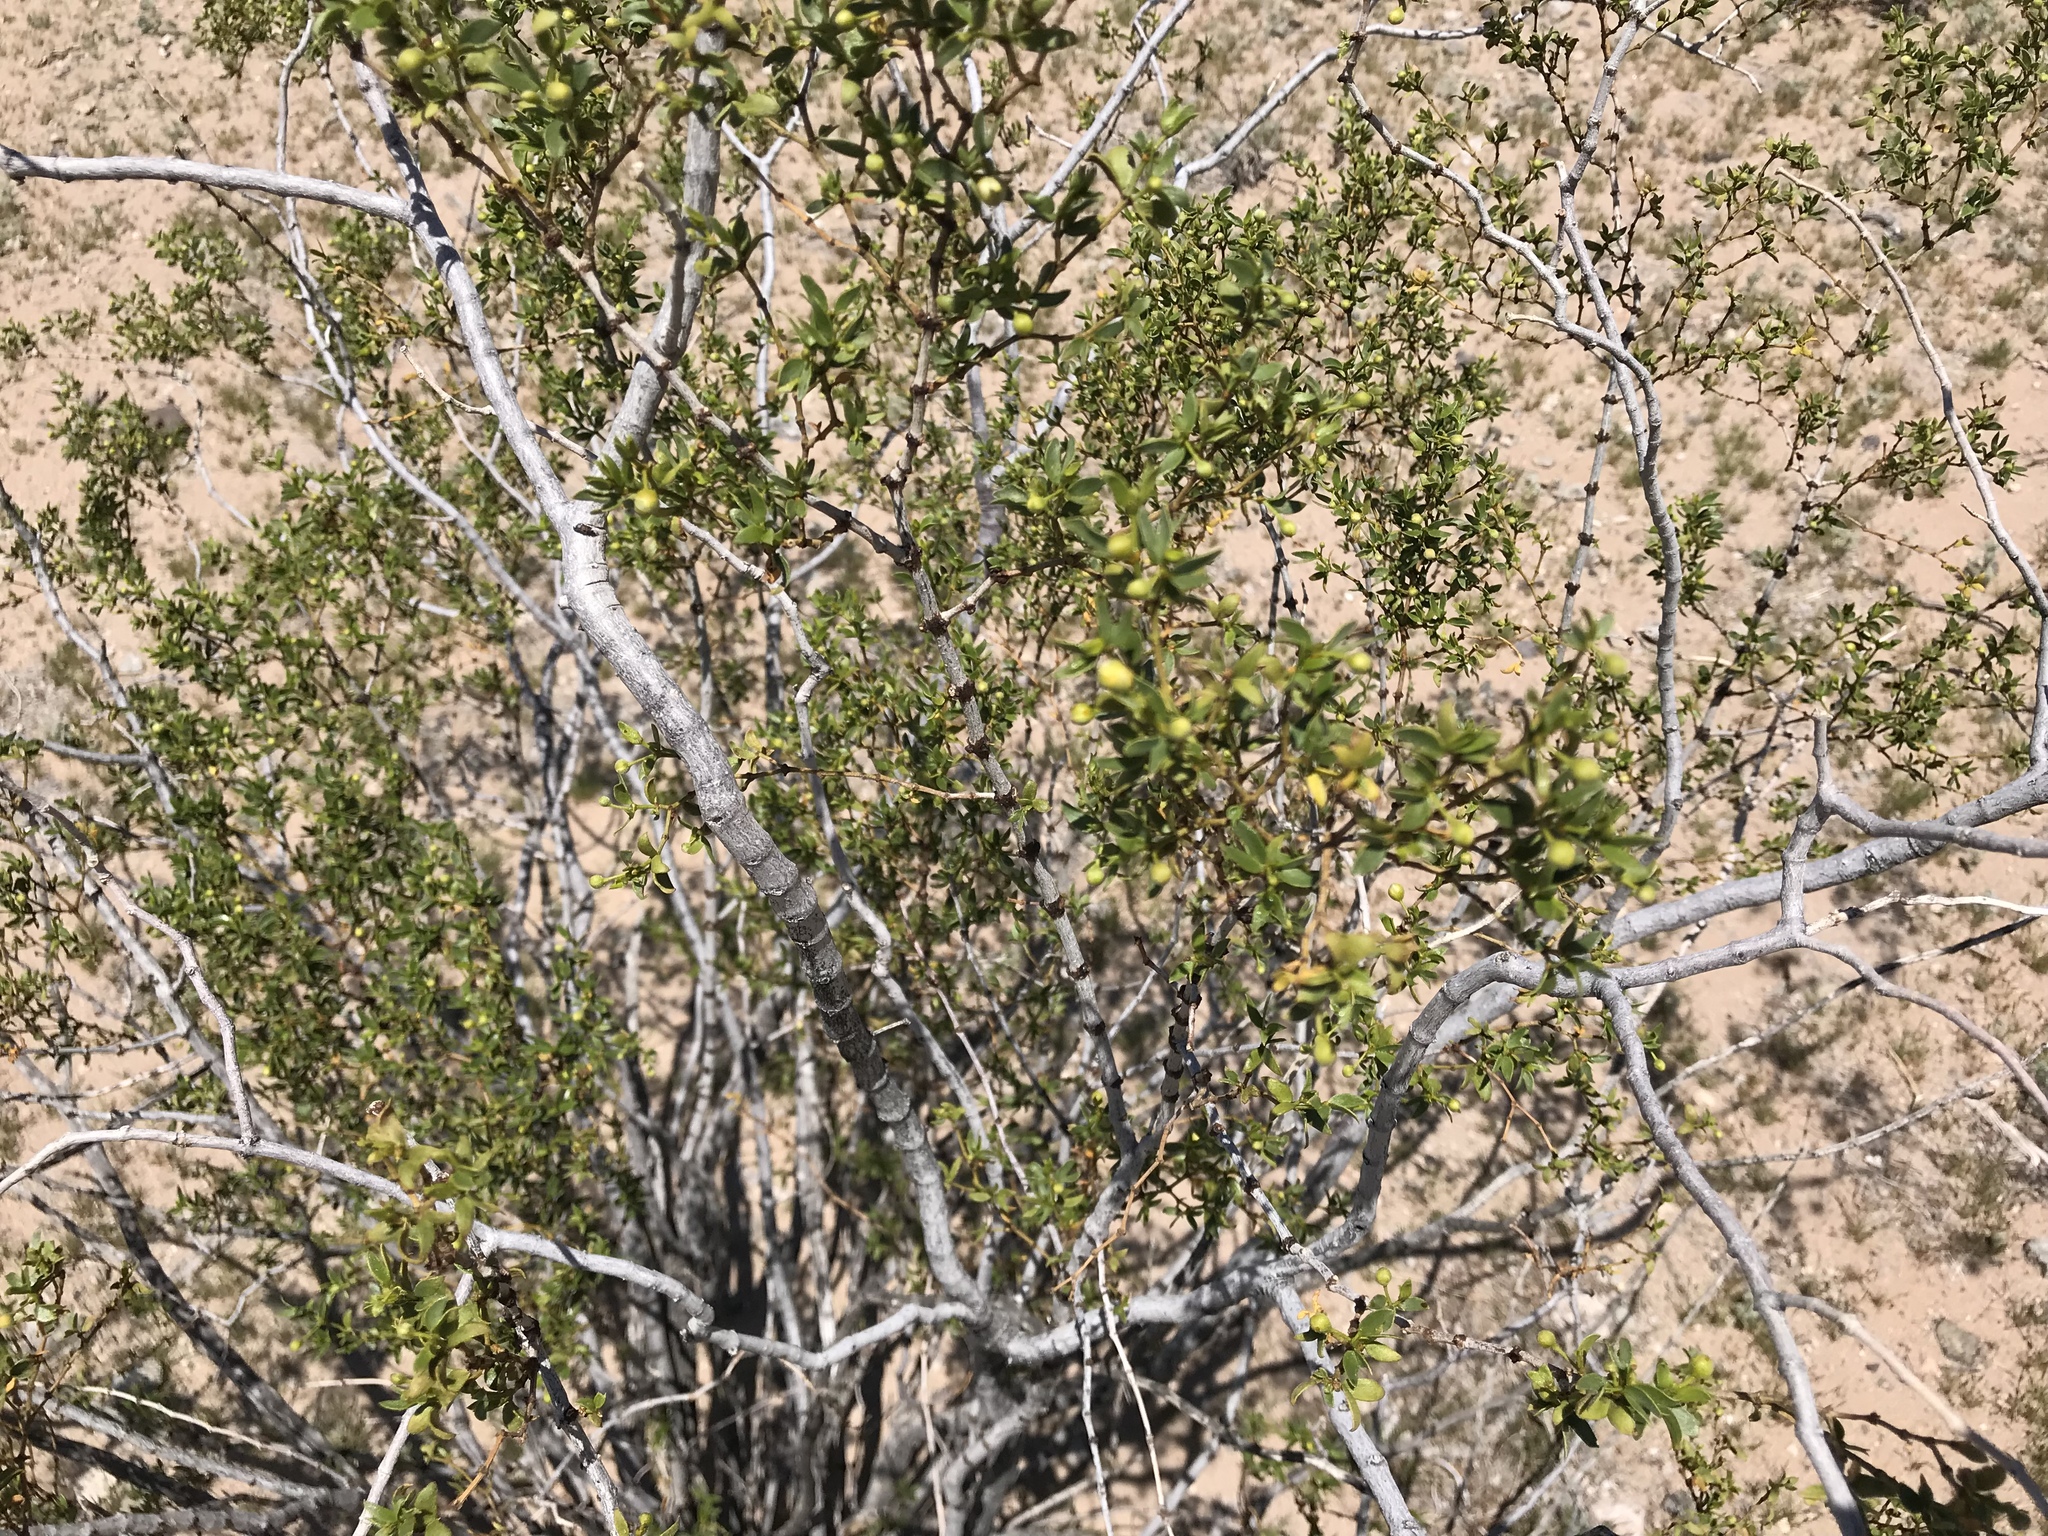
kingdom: Plantae
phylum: Tracheophyta
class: Magnoliopsida
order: Zygophyllales
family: Zygophyllaceae
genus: Larrea
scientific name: Larrea tridentata
